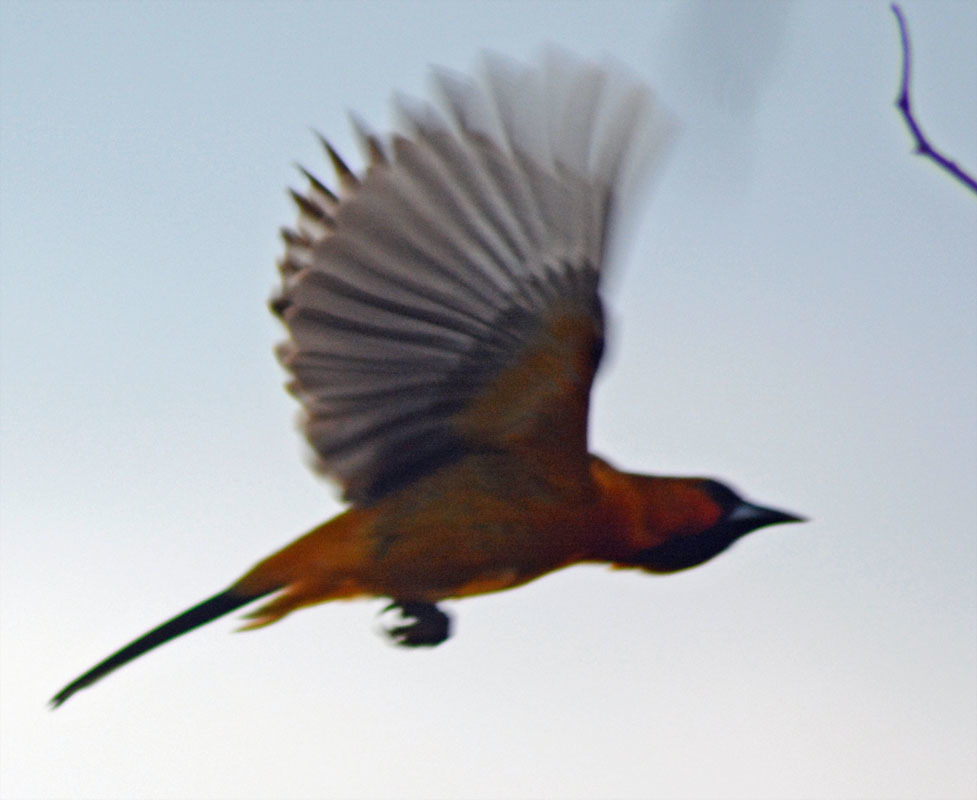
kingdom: Animalia
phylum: Chordata
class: Aves
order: Passeriformes
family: Icteridae
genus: Icterus
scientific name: Icterus pustulatus
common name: Streak-backed oriole
